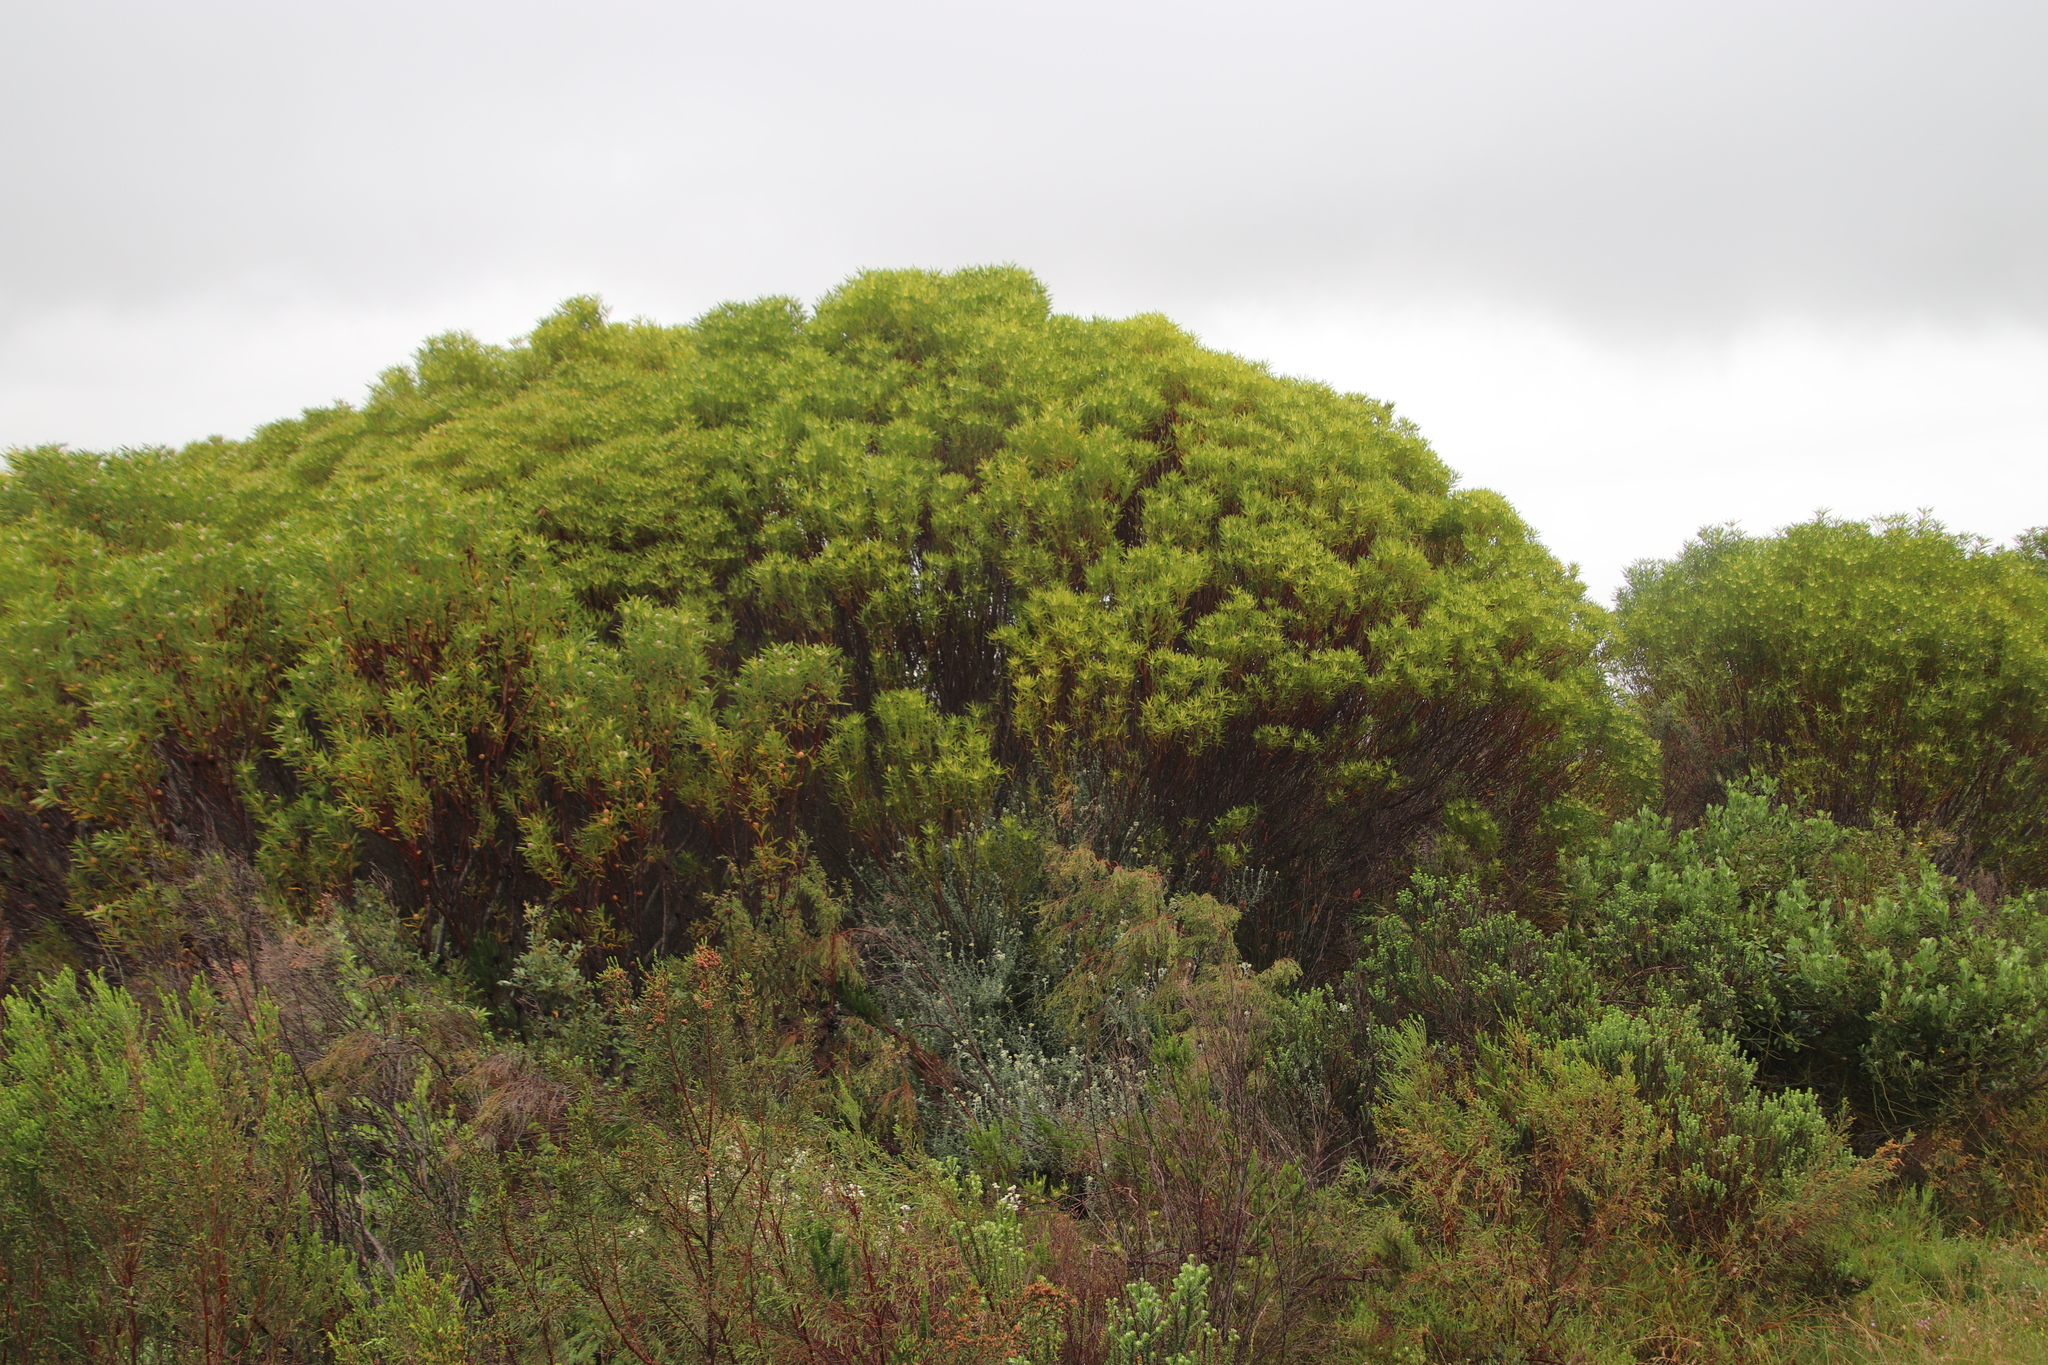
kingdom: Plantae
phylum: Tracheophyta
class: Magnoliopsida
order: Proteales
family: Proteaceae
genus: Leucadendron
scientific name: Leucadendron coniferum
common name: Dune conebush
